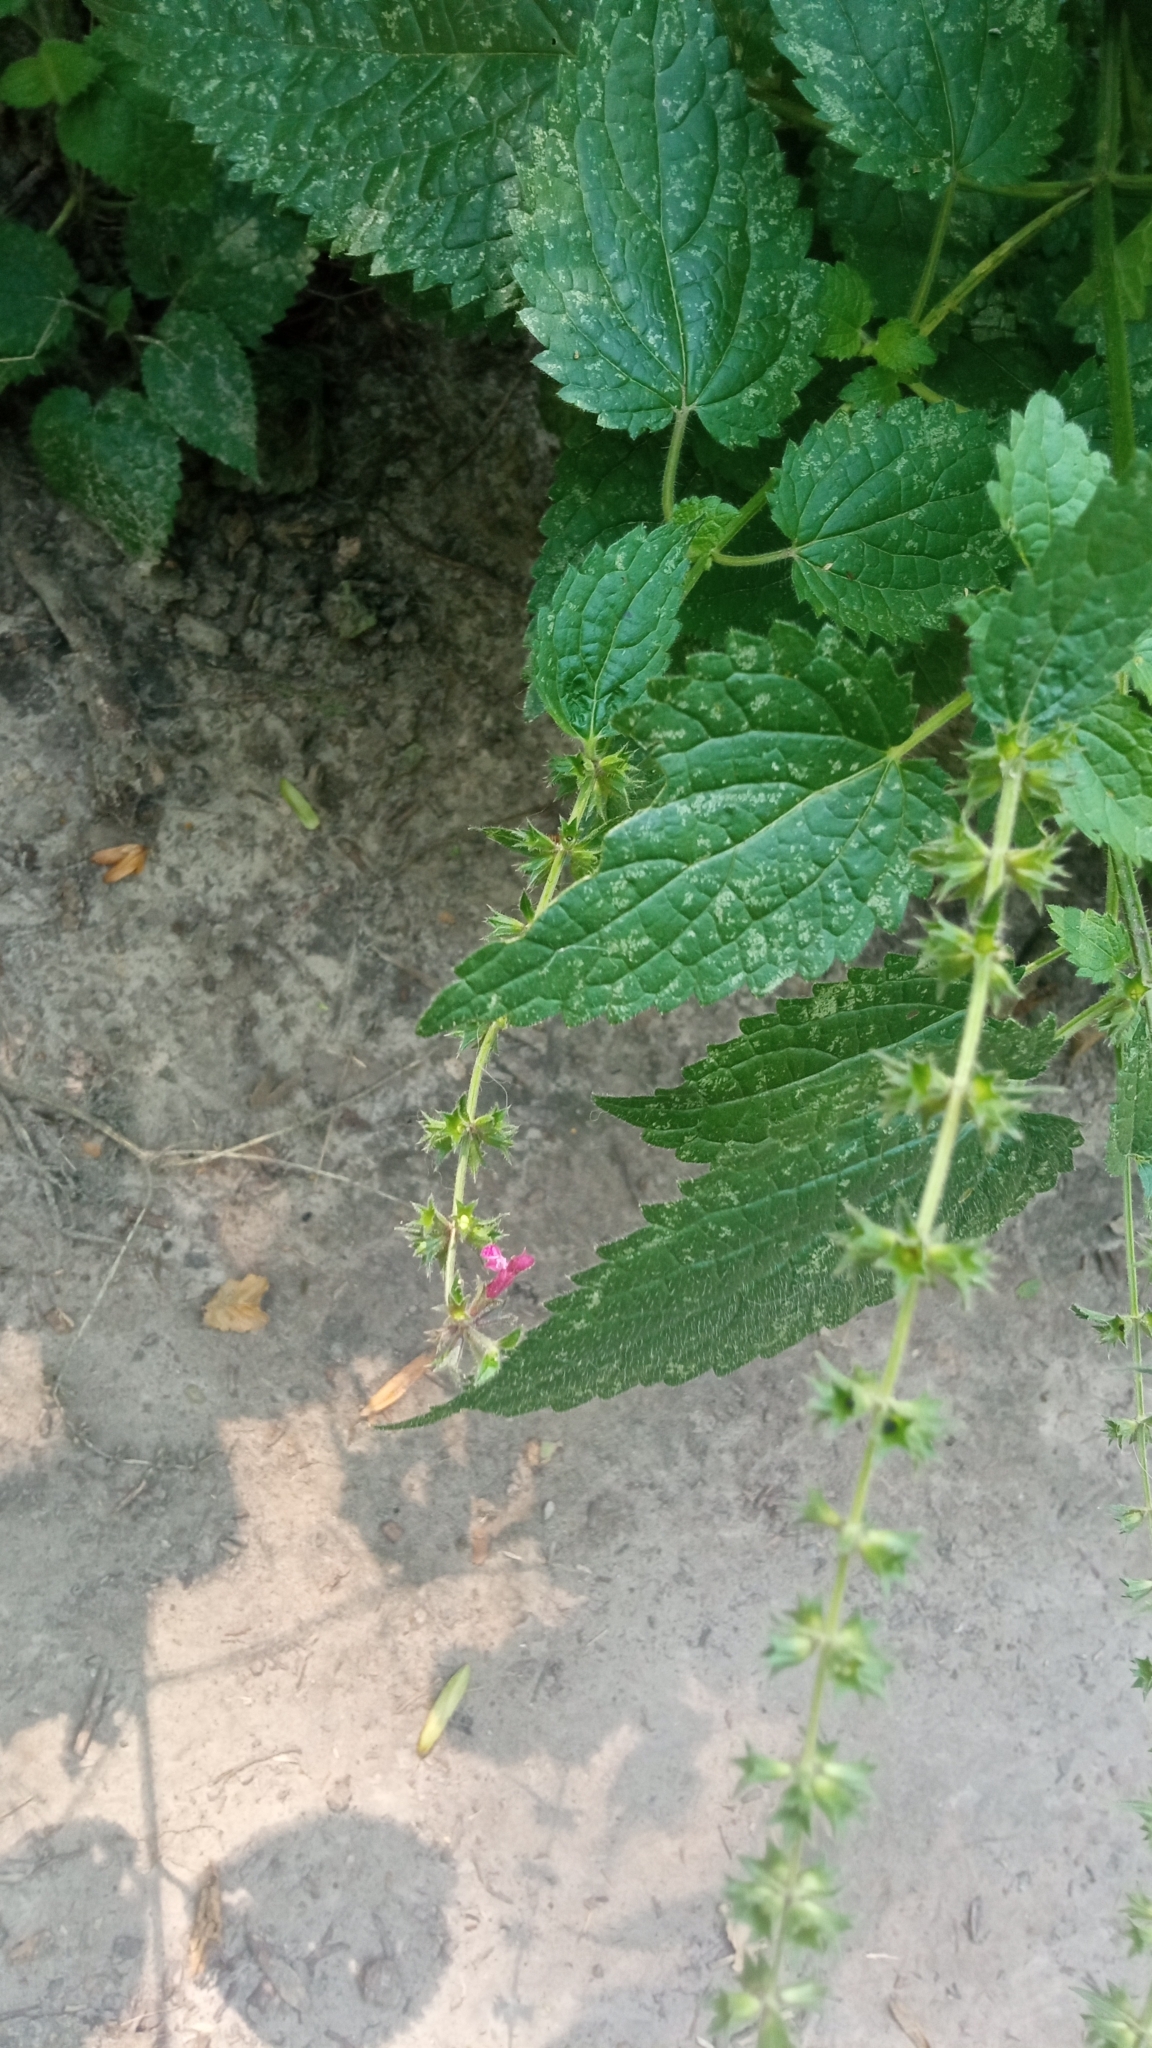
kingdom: Plantae
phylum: Tracheophyta
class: Magnoliopsida
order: Lamiales
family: Lamiaceae
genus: Stachys
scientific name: Stachys sylvatica
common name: Hedge woundwort
